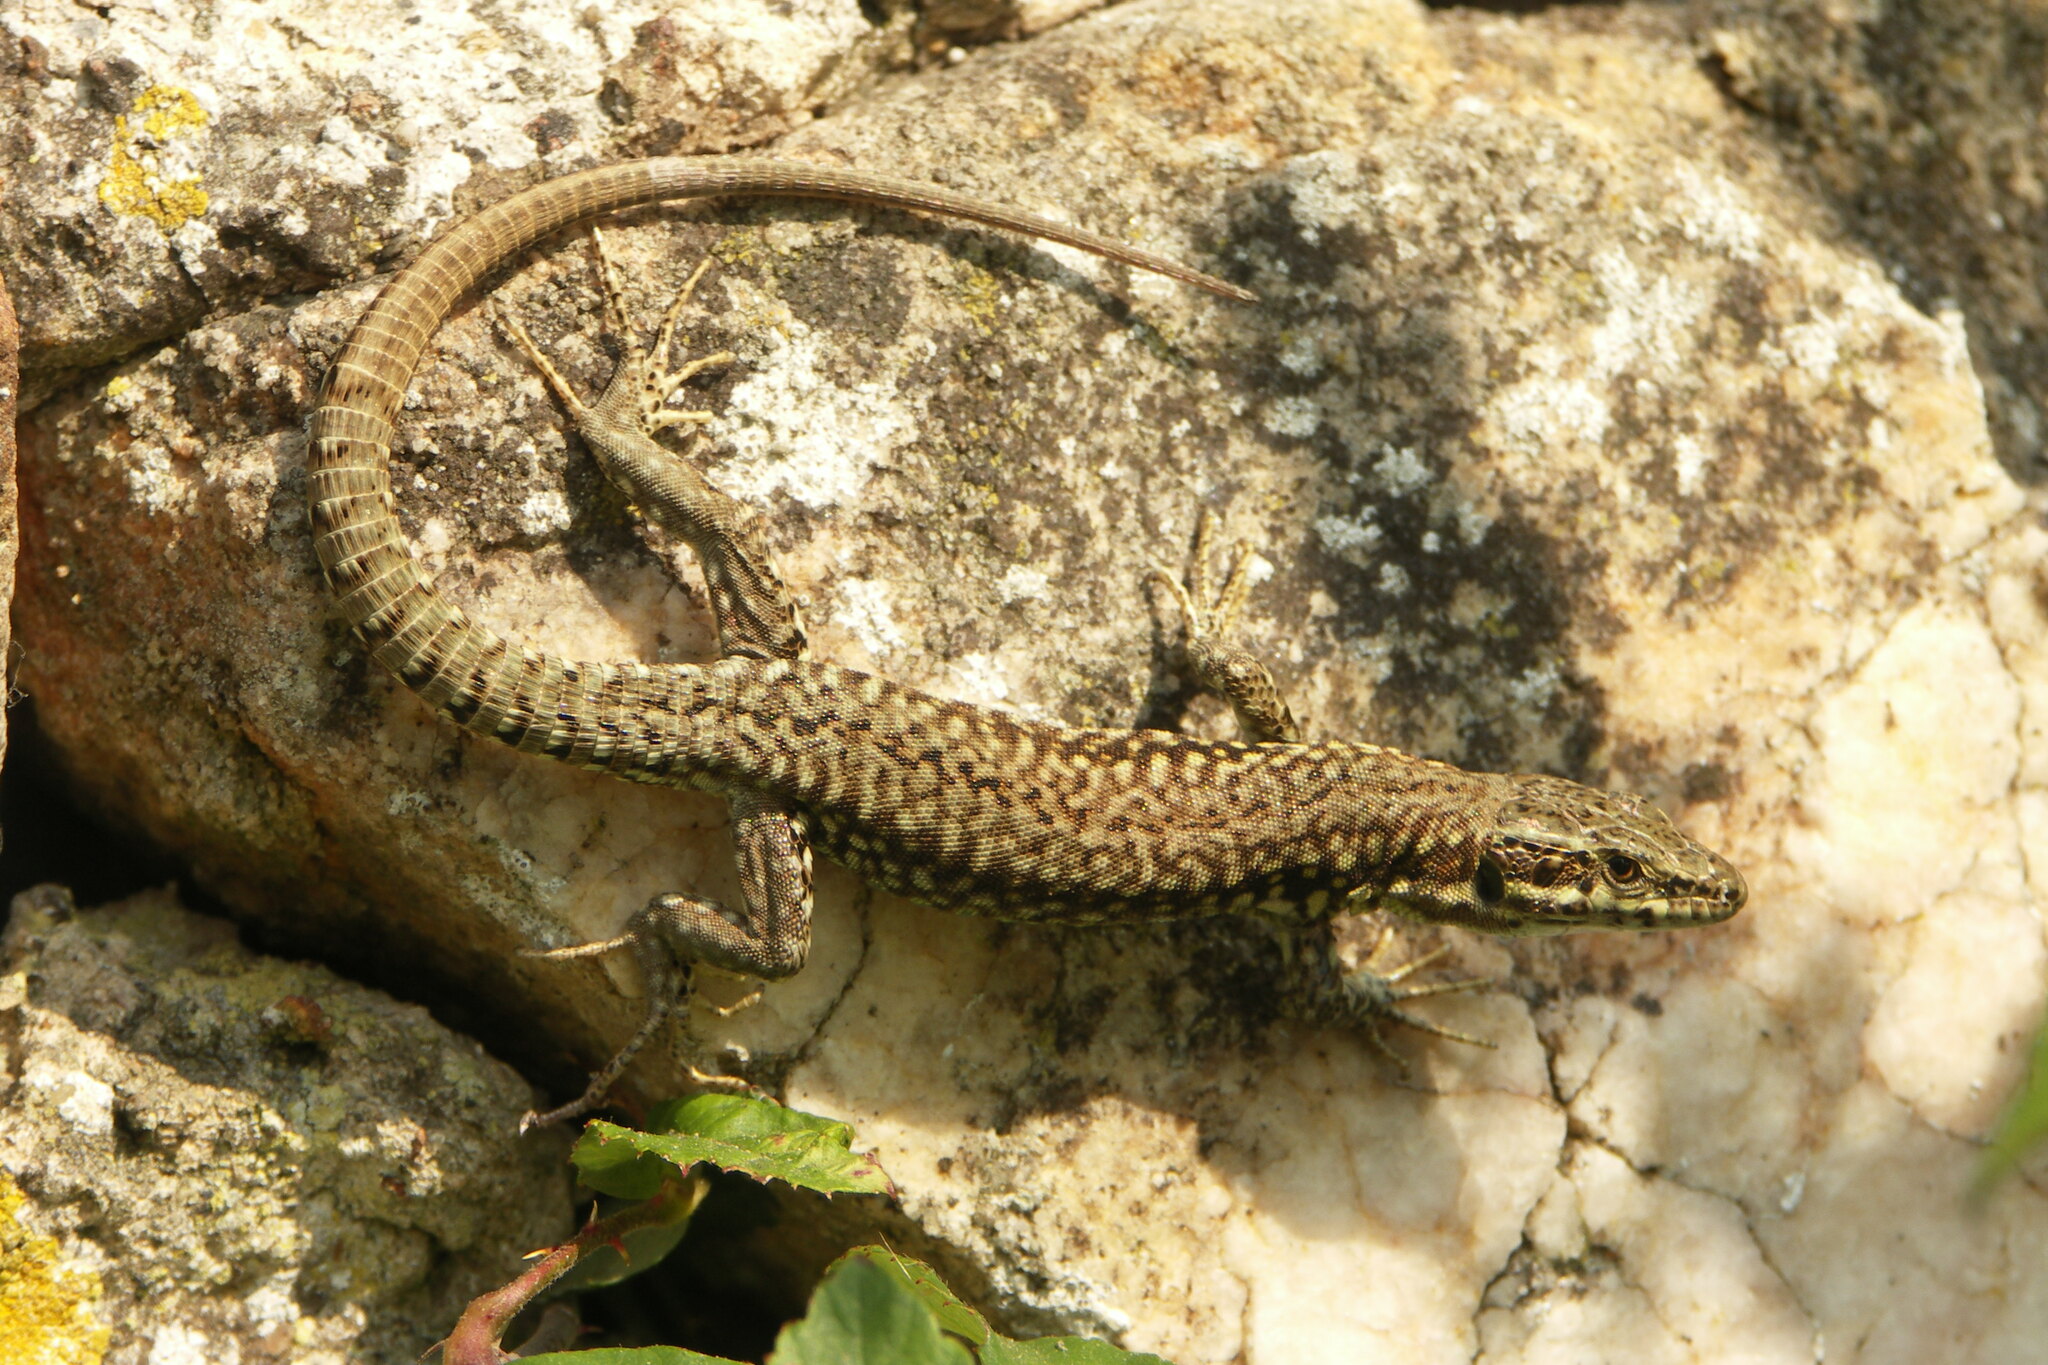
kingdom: Animalia
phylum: Chordata
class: Squamata
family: Lacertidae
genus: Podarcis
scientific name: Podarcis muralis
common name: Common wall lizard
